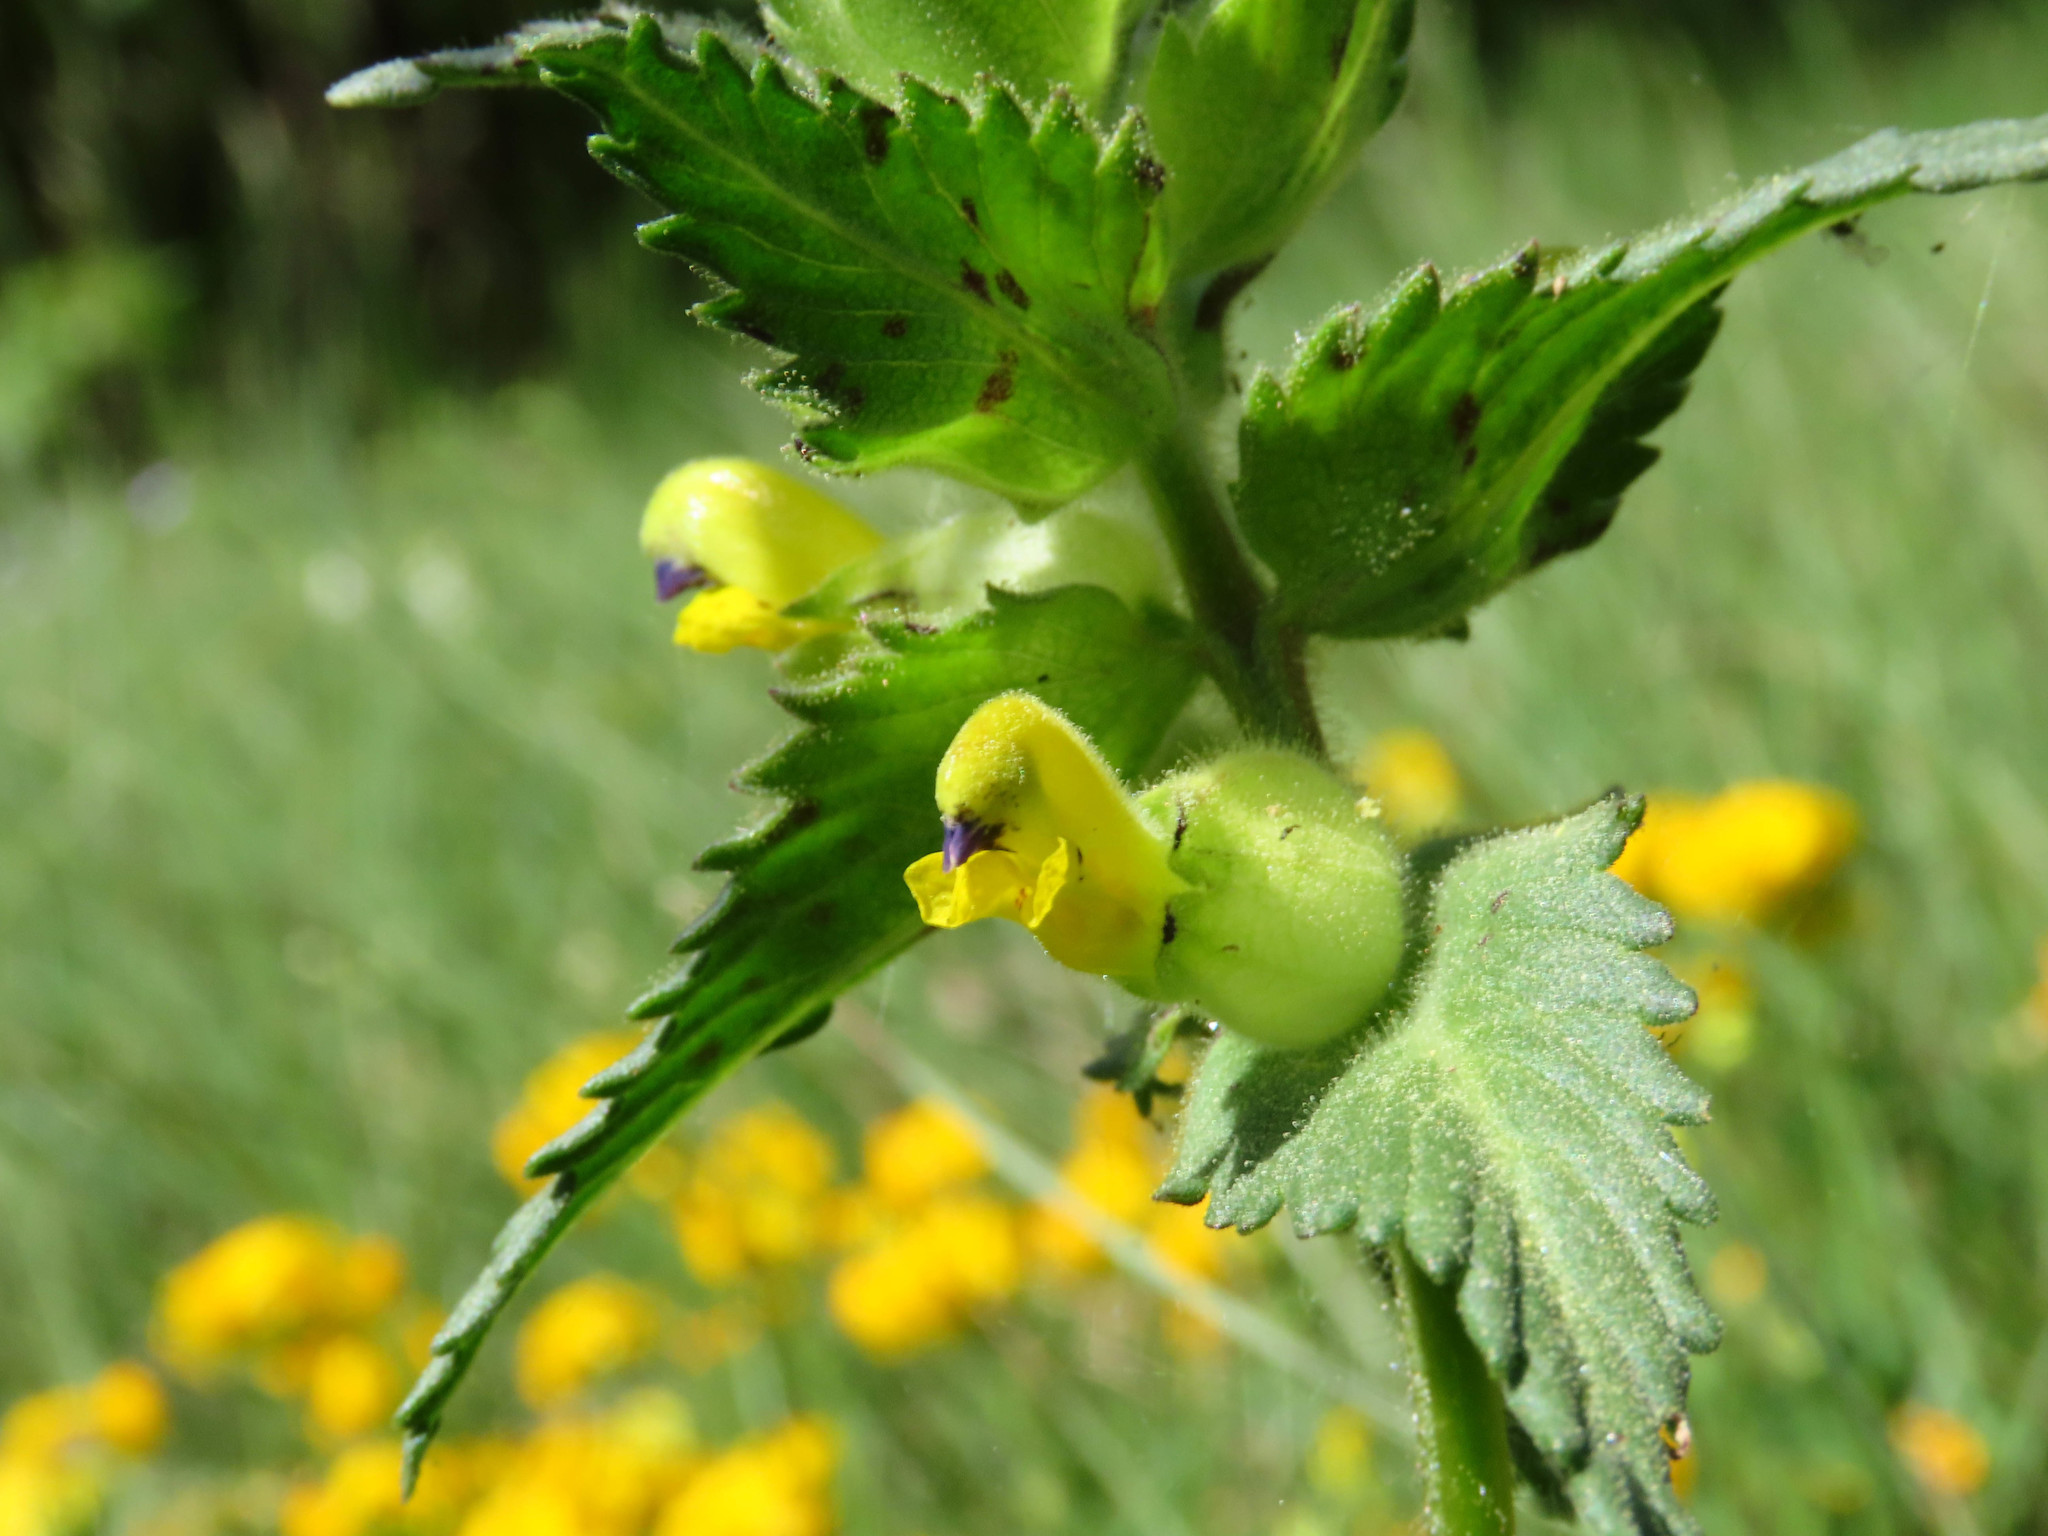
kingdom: Plantae
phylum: Tracheophyta
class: Magnoliopsida
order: Lamiales
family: Orobanchaceae
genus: Rhinanthus
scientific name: Rhinanthus alectorolophus
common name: Greater yellow-rattle
